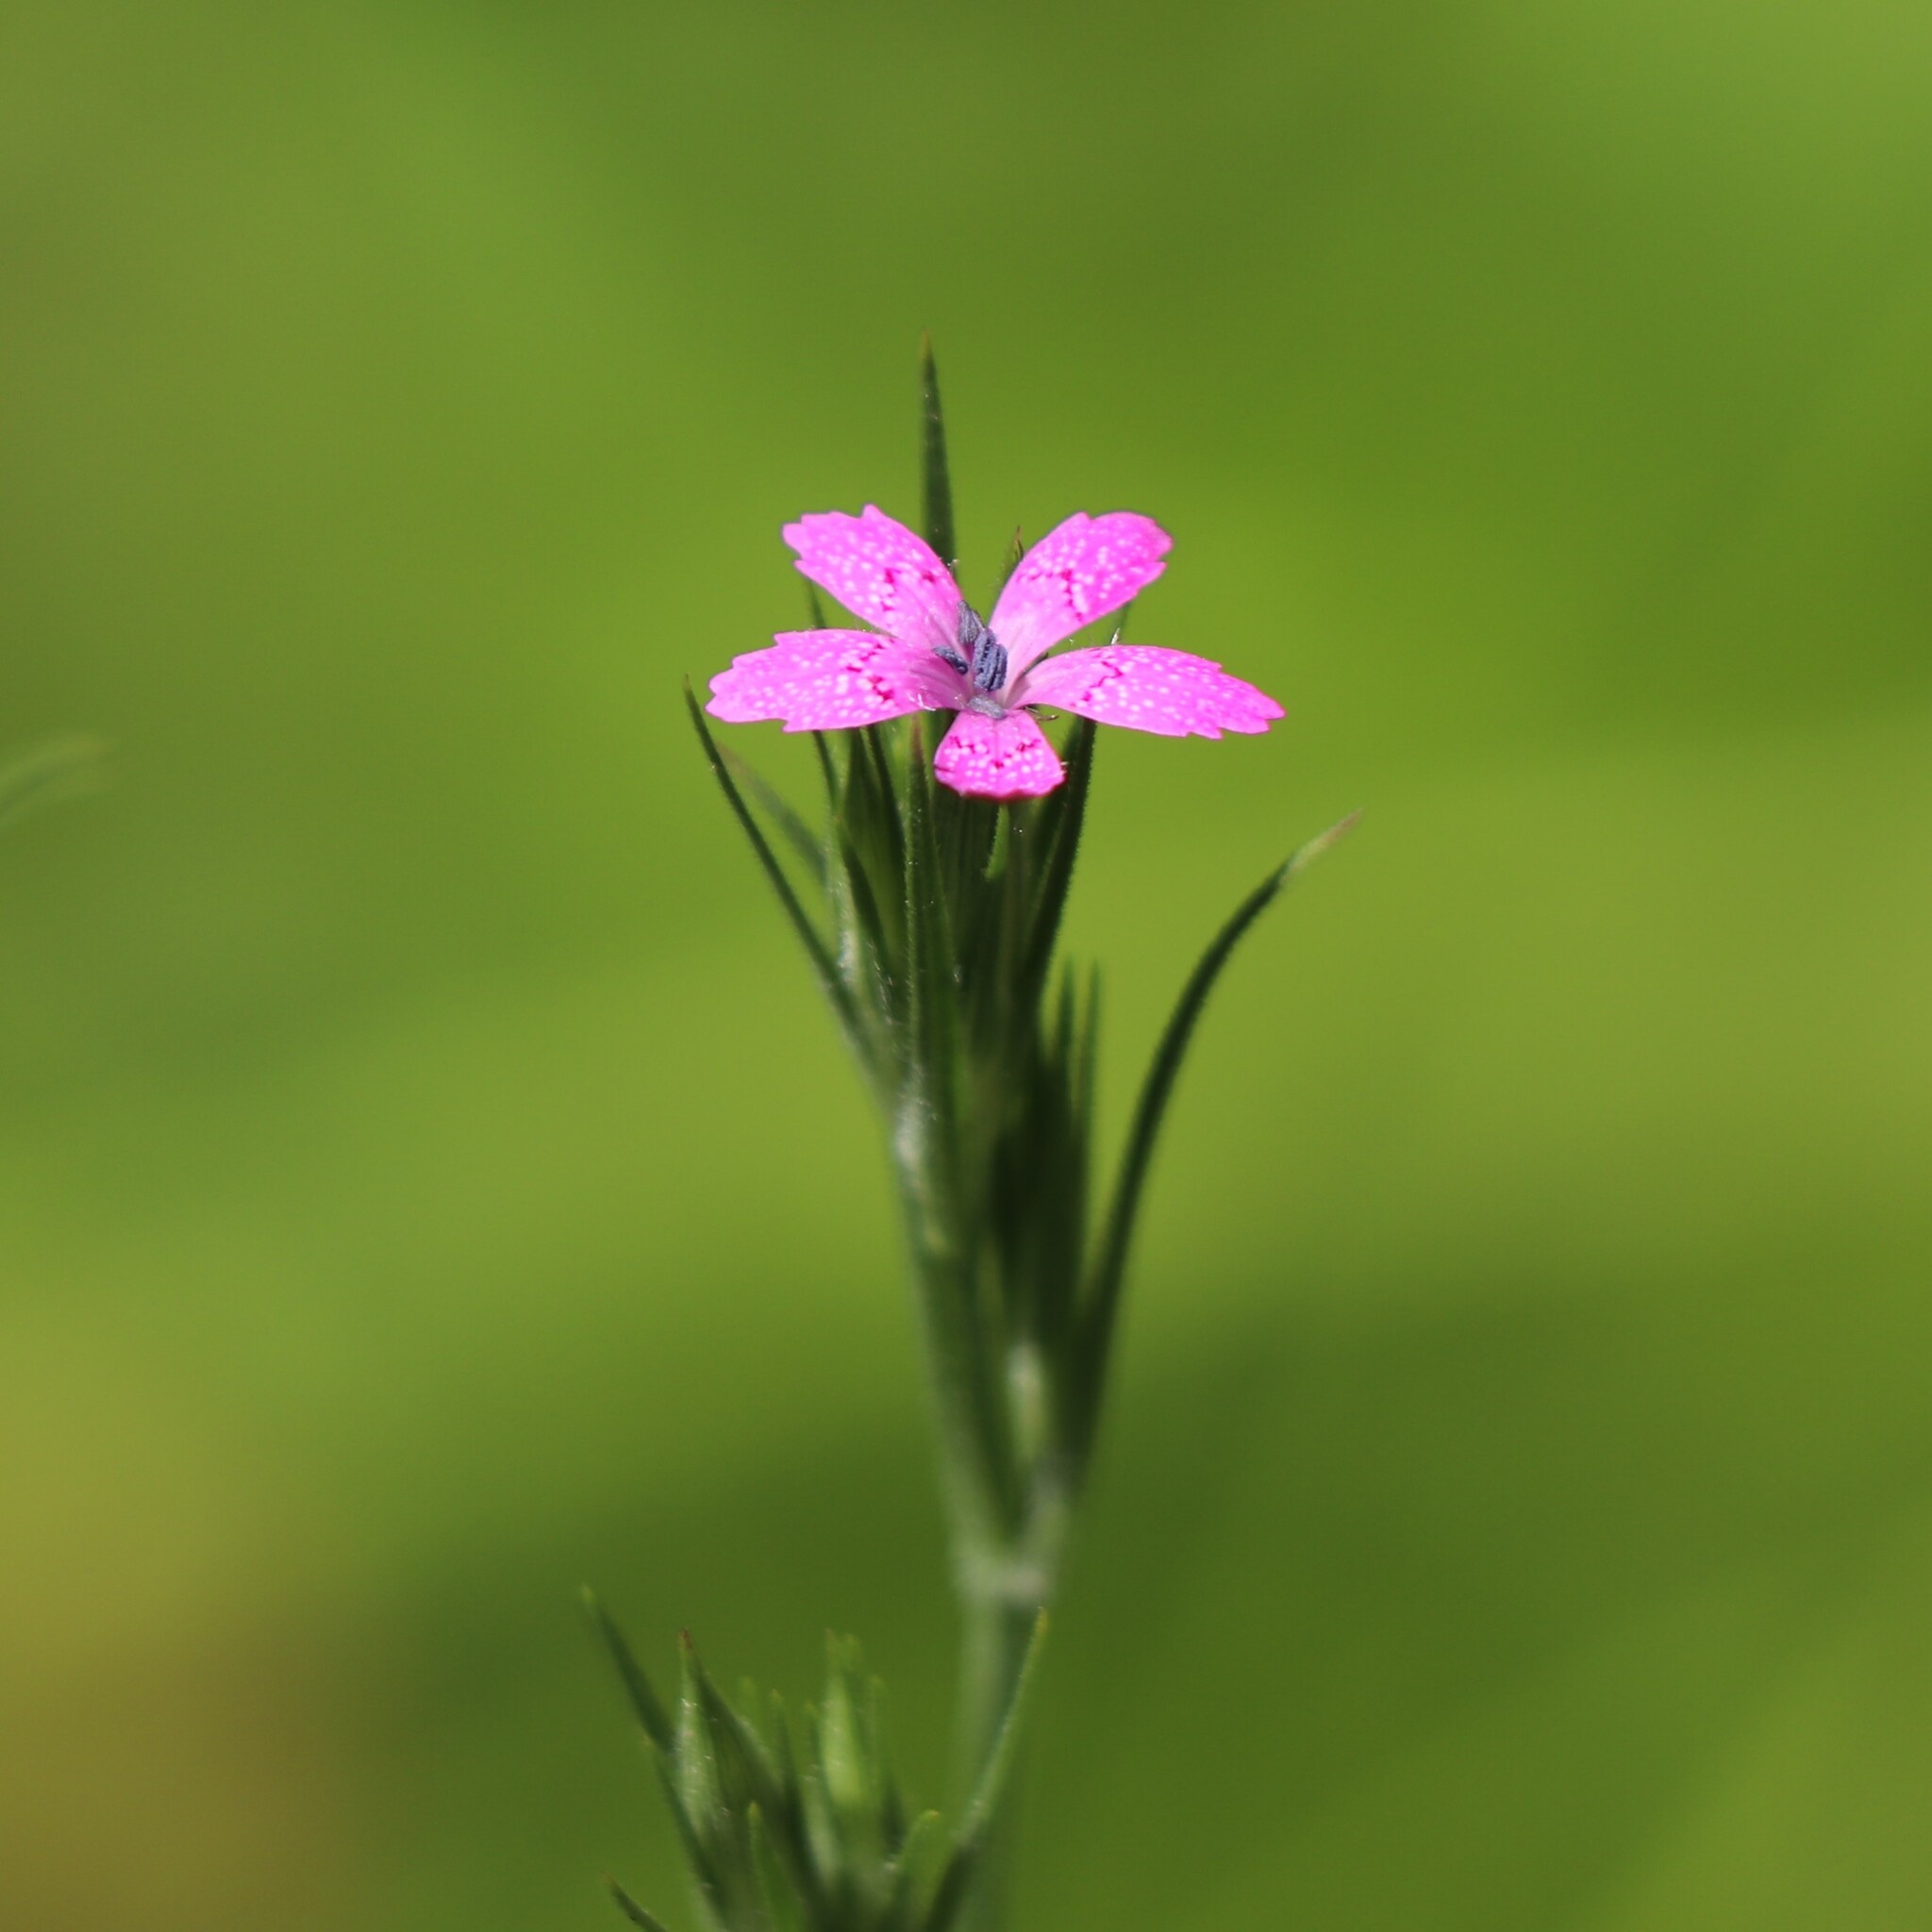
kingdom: Plantae
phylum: Tracheophyta
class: Magnoliopsida
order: Caryophyllales
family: Caryophyllaceae
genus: Dianthus
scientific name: Dianthus armeria
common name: Deptford pink
